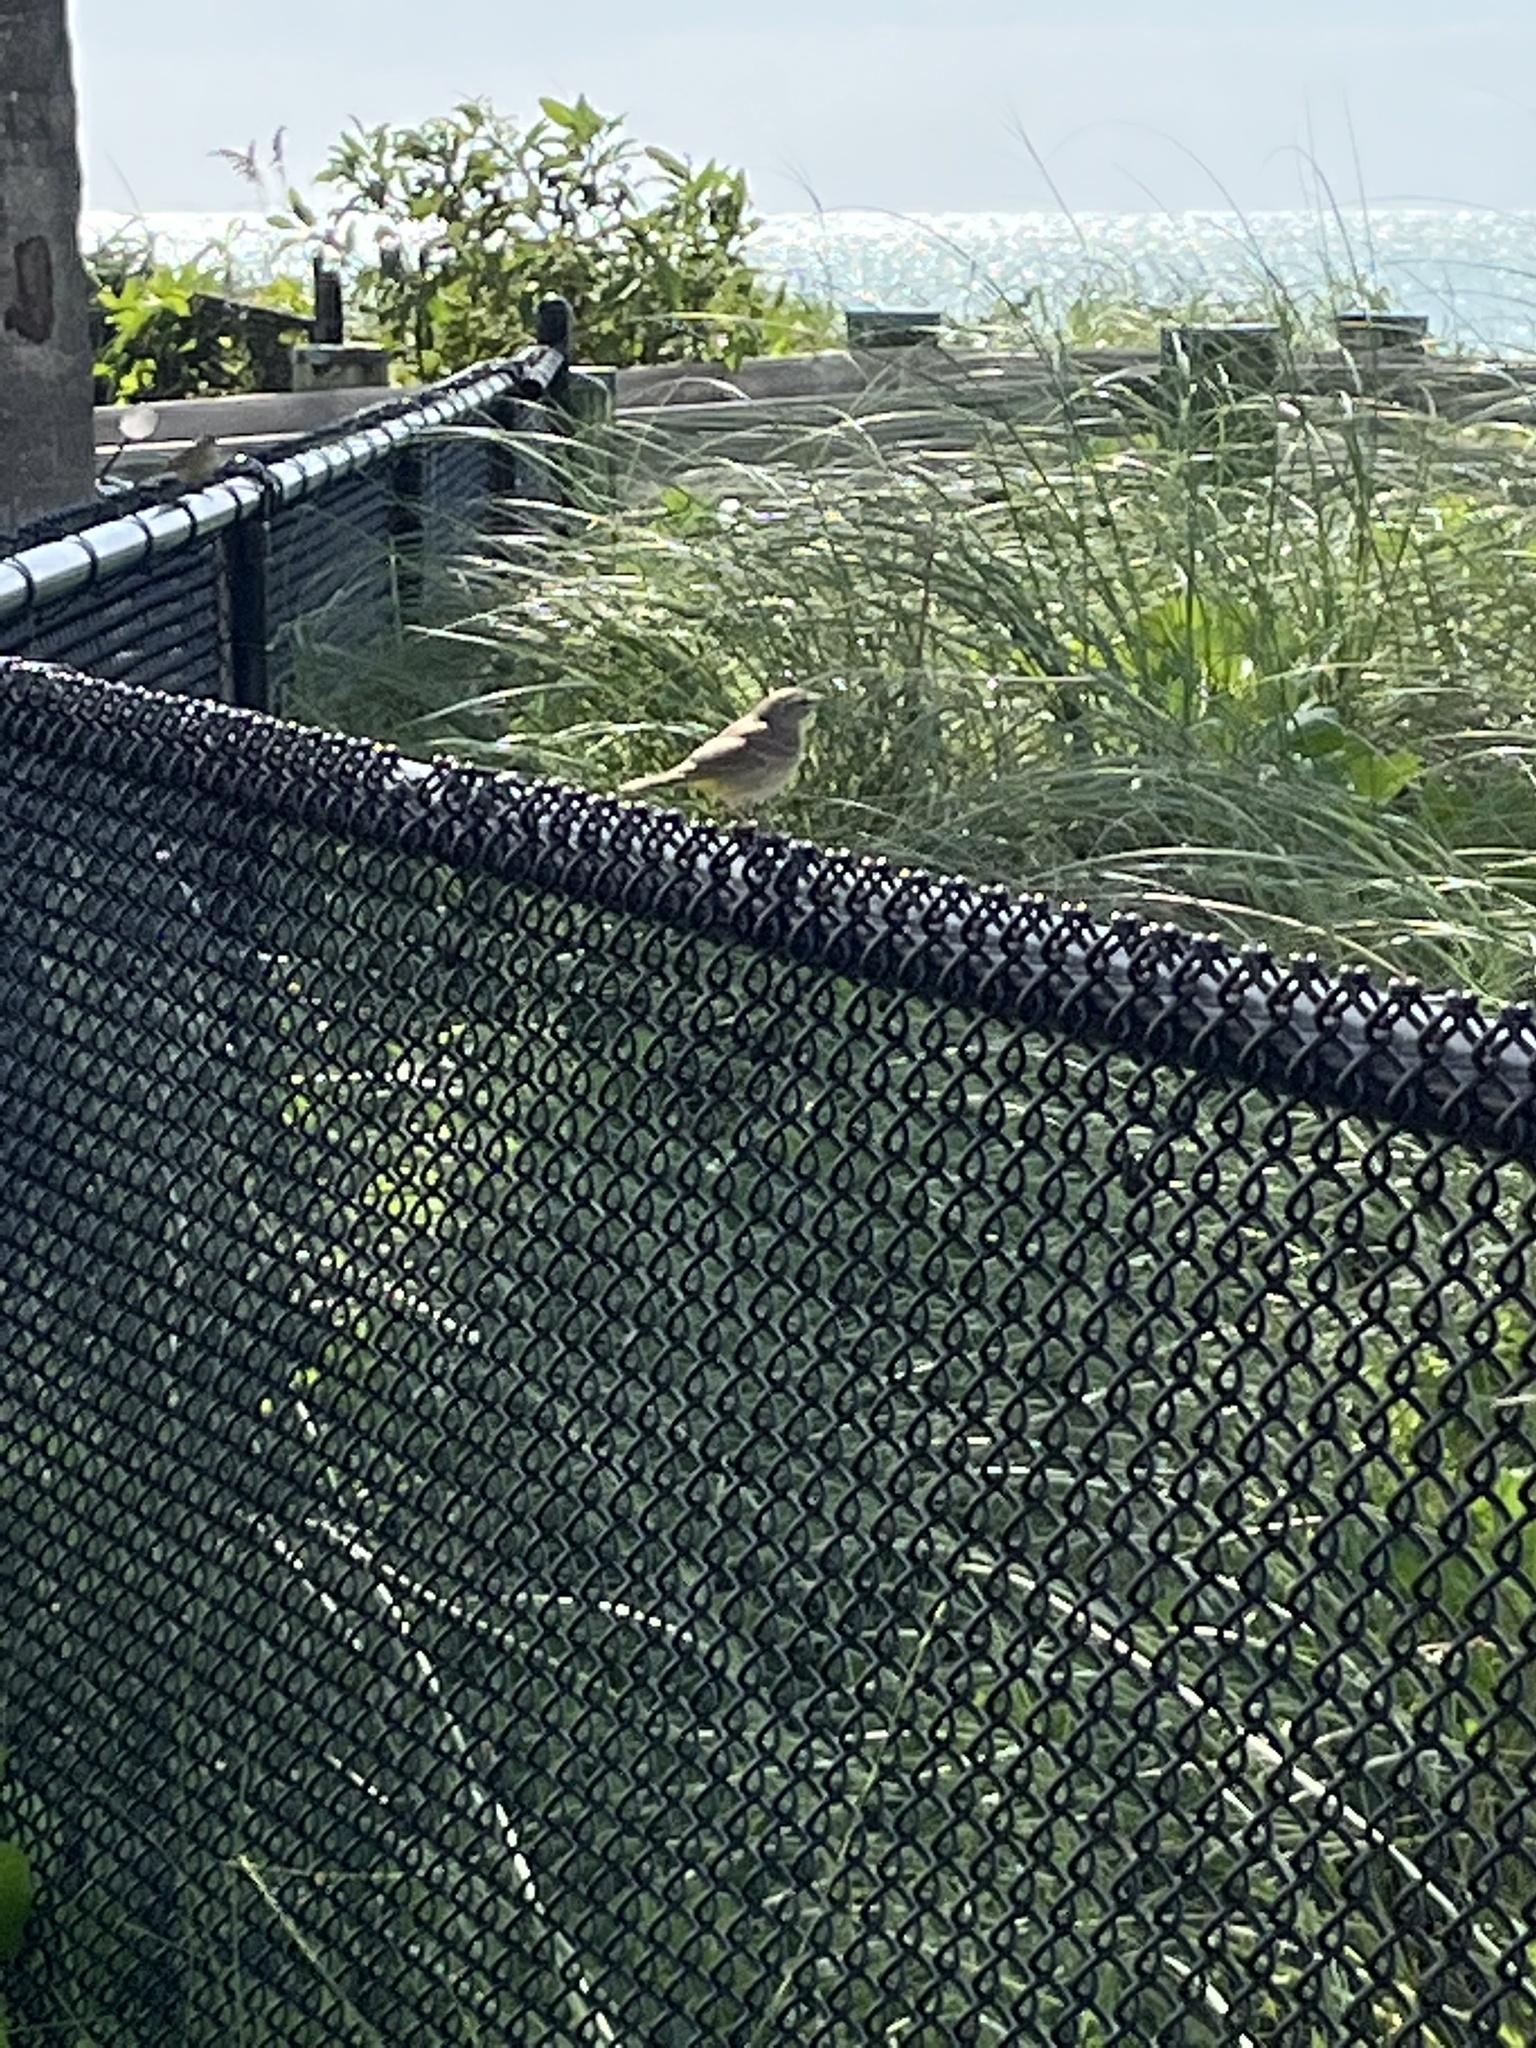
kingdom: Animalia
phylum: Chordata
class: Aves
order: Passeriformes
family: Parulidae
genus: Setophaga
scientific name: Setophaga palmarum
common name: Palm warbler
